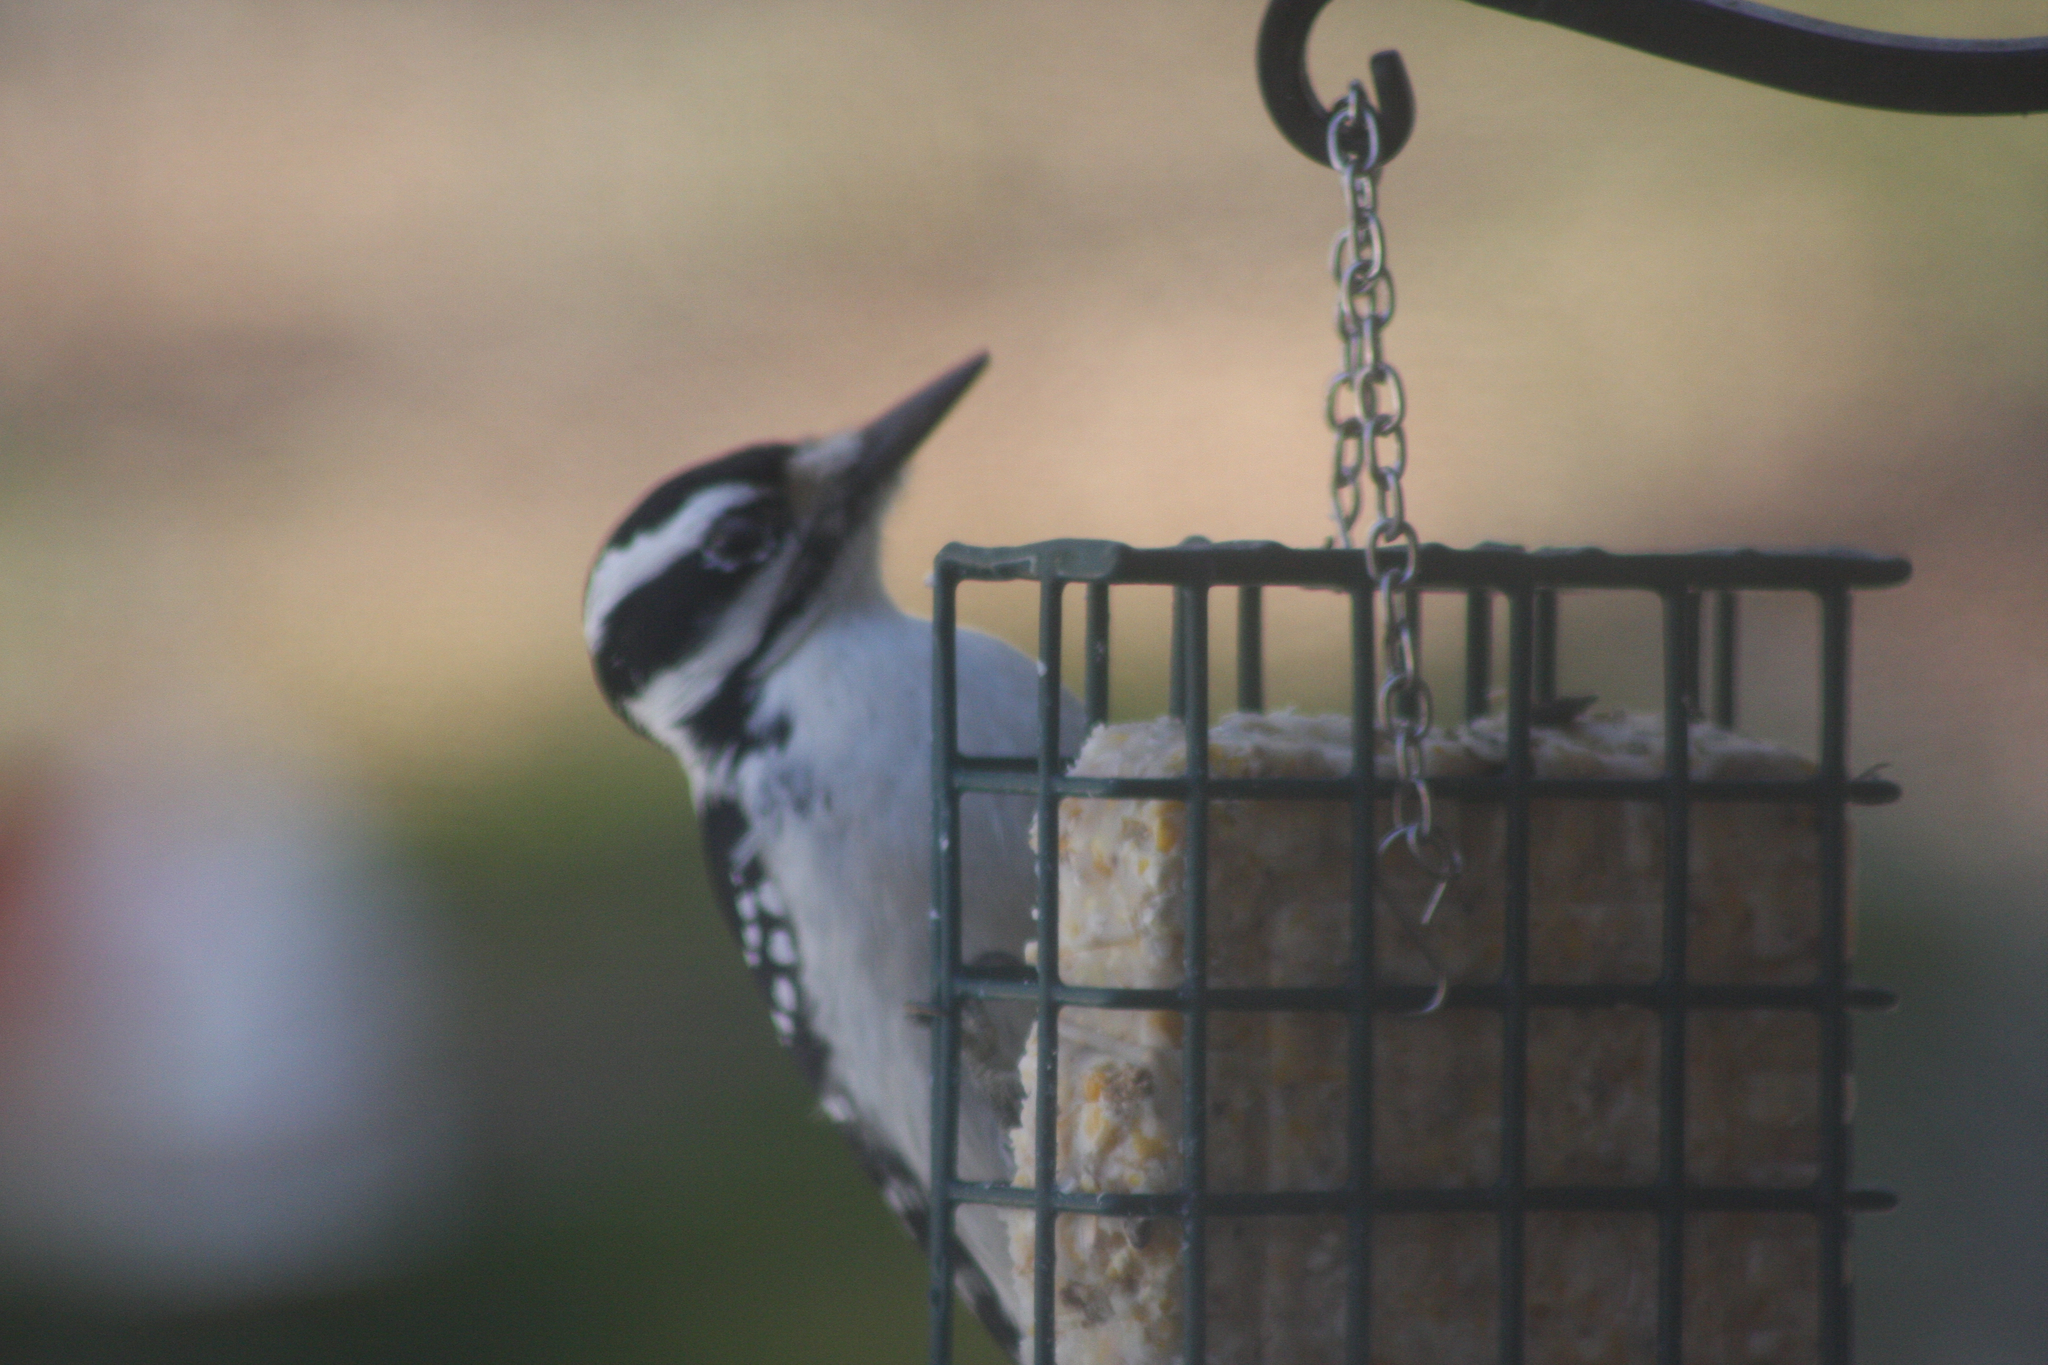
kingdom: Animalia
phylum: Chordata
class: Aves
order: Piciformes
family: Picidae
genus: Leuconotopicus
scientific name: Leuconotopicus villosus
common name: Hairy woodpecker
